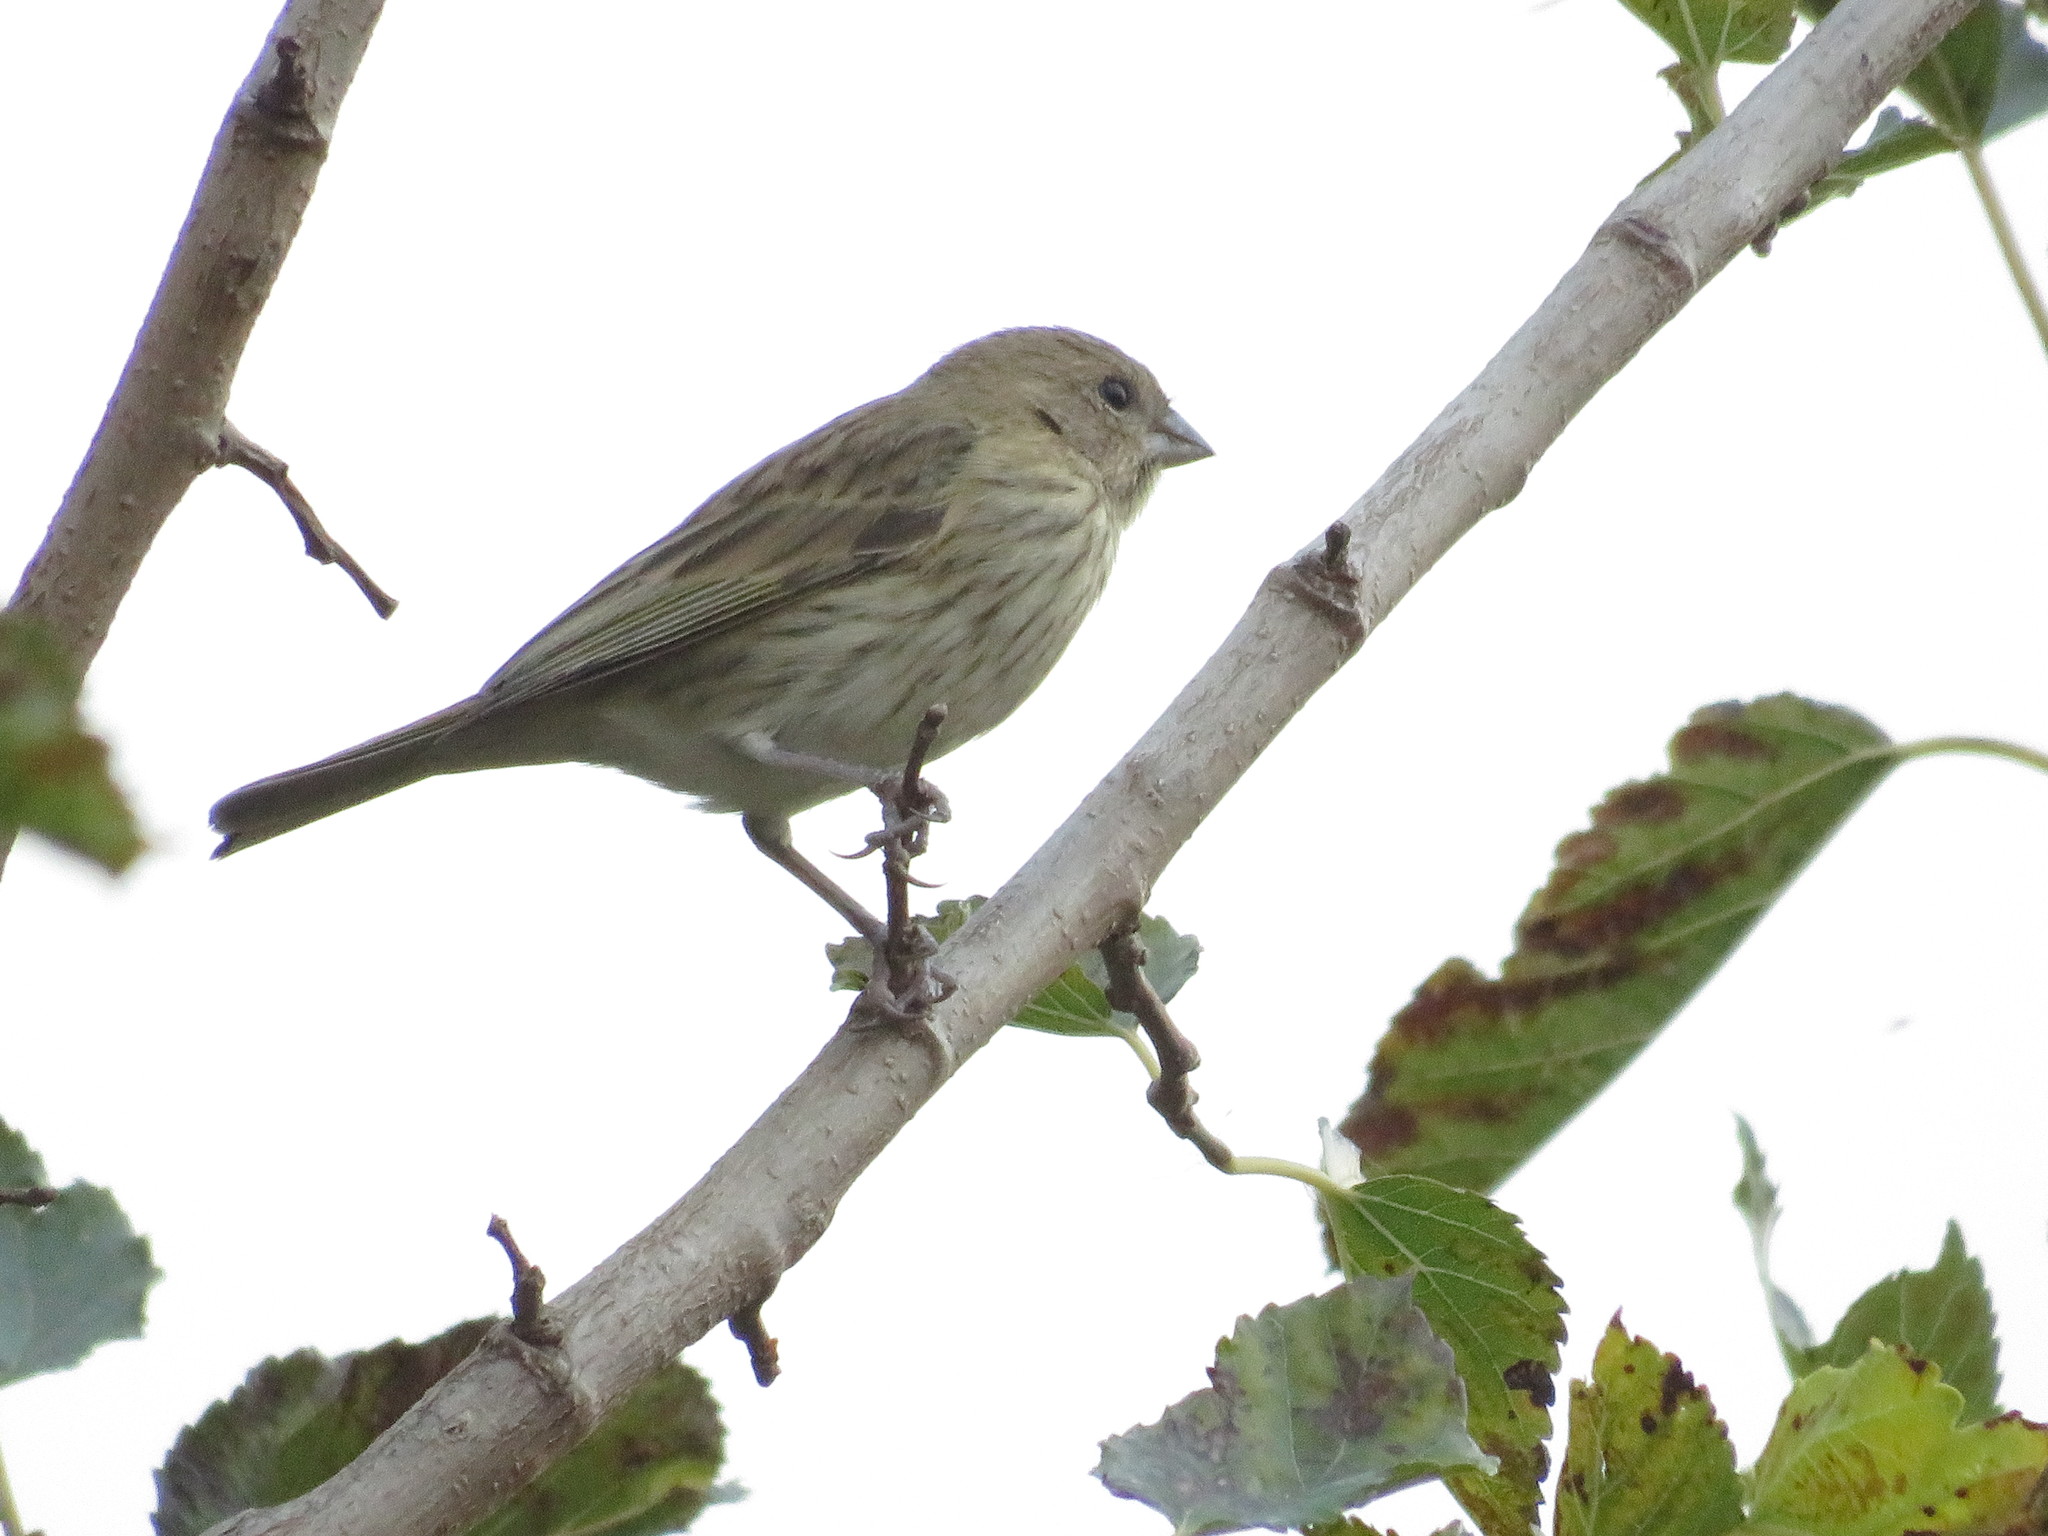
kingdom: Animalia
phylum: Chordata
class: Aves
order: Passeriformes
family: Thraupidae
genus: Sicalis
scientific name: Sicalis flaveola
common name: Saffron finch
